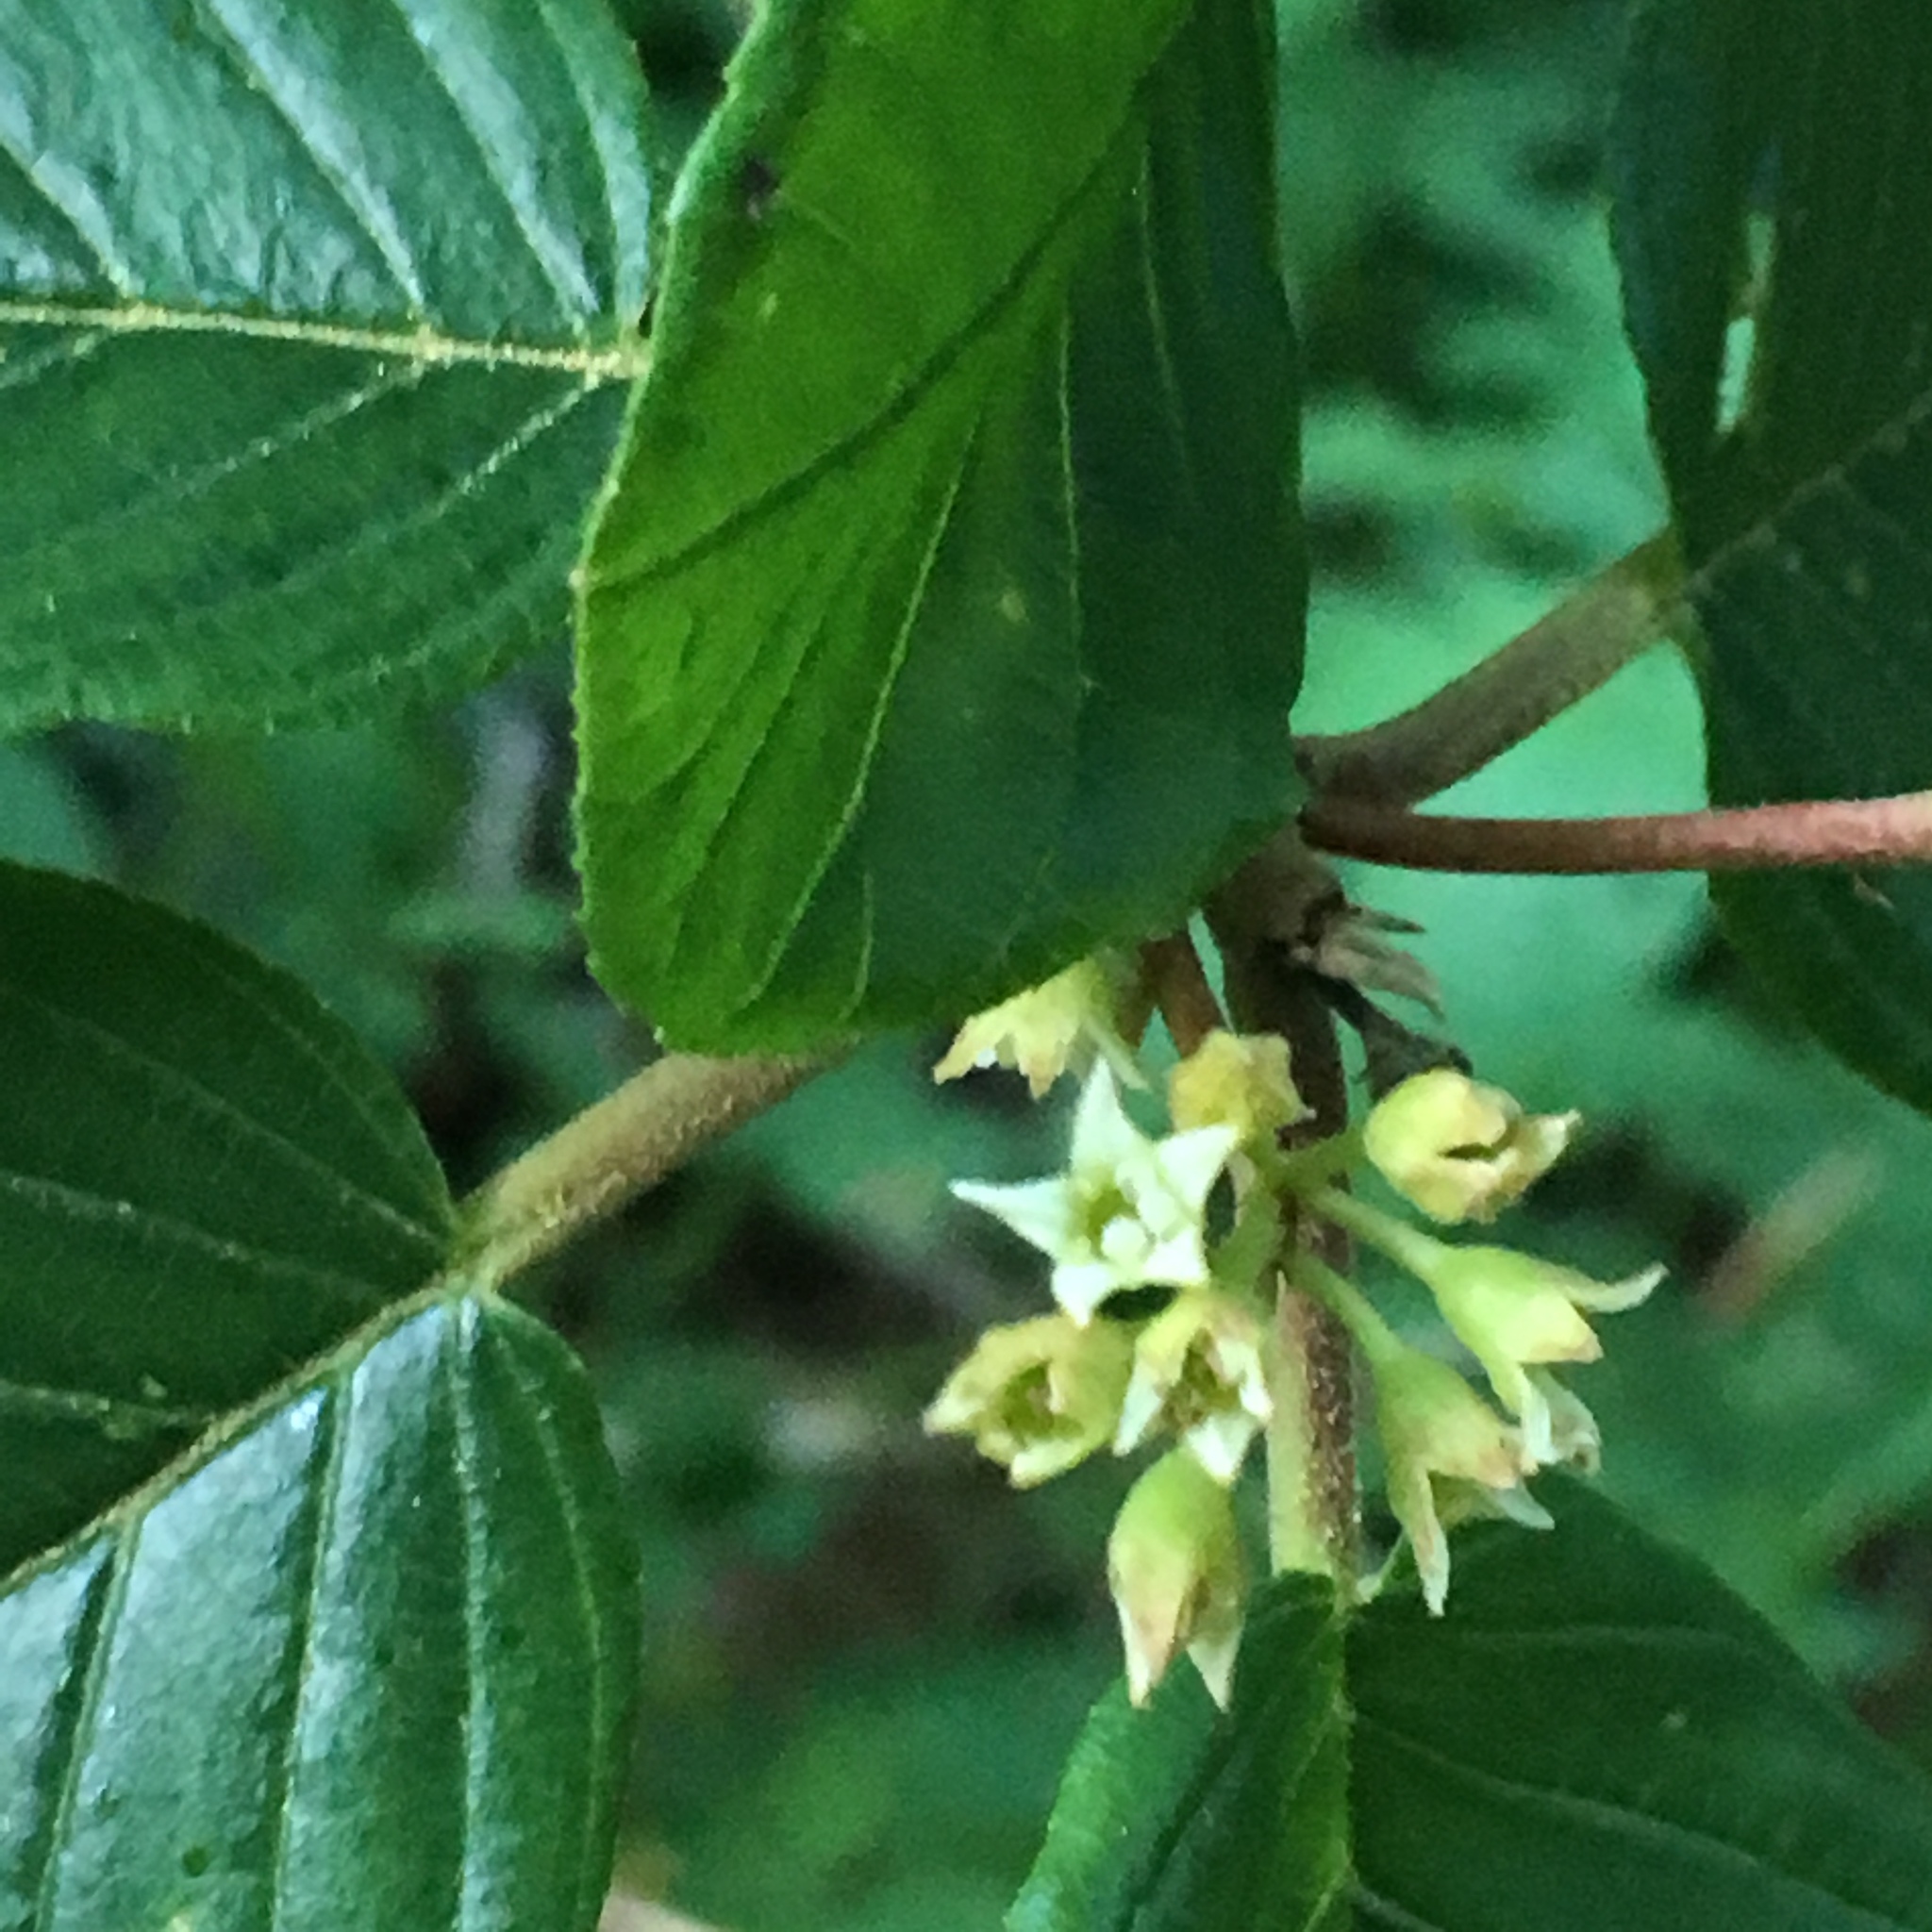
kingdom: Plantae
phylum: Tracheophyta
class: Magnoliopsida
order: Rosales
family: Rhamnaceae
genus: Frangula
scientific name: Frangula purshiana
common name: Cascara buckthorn
